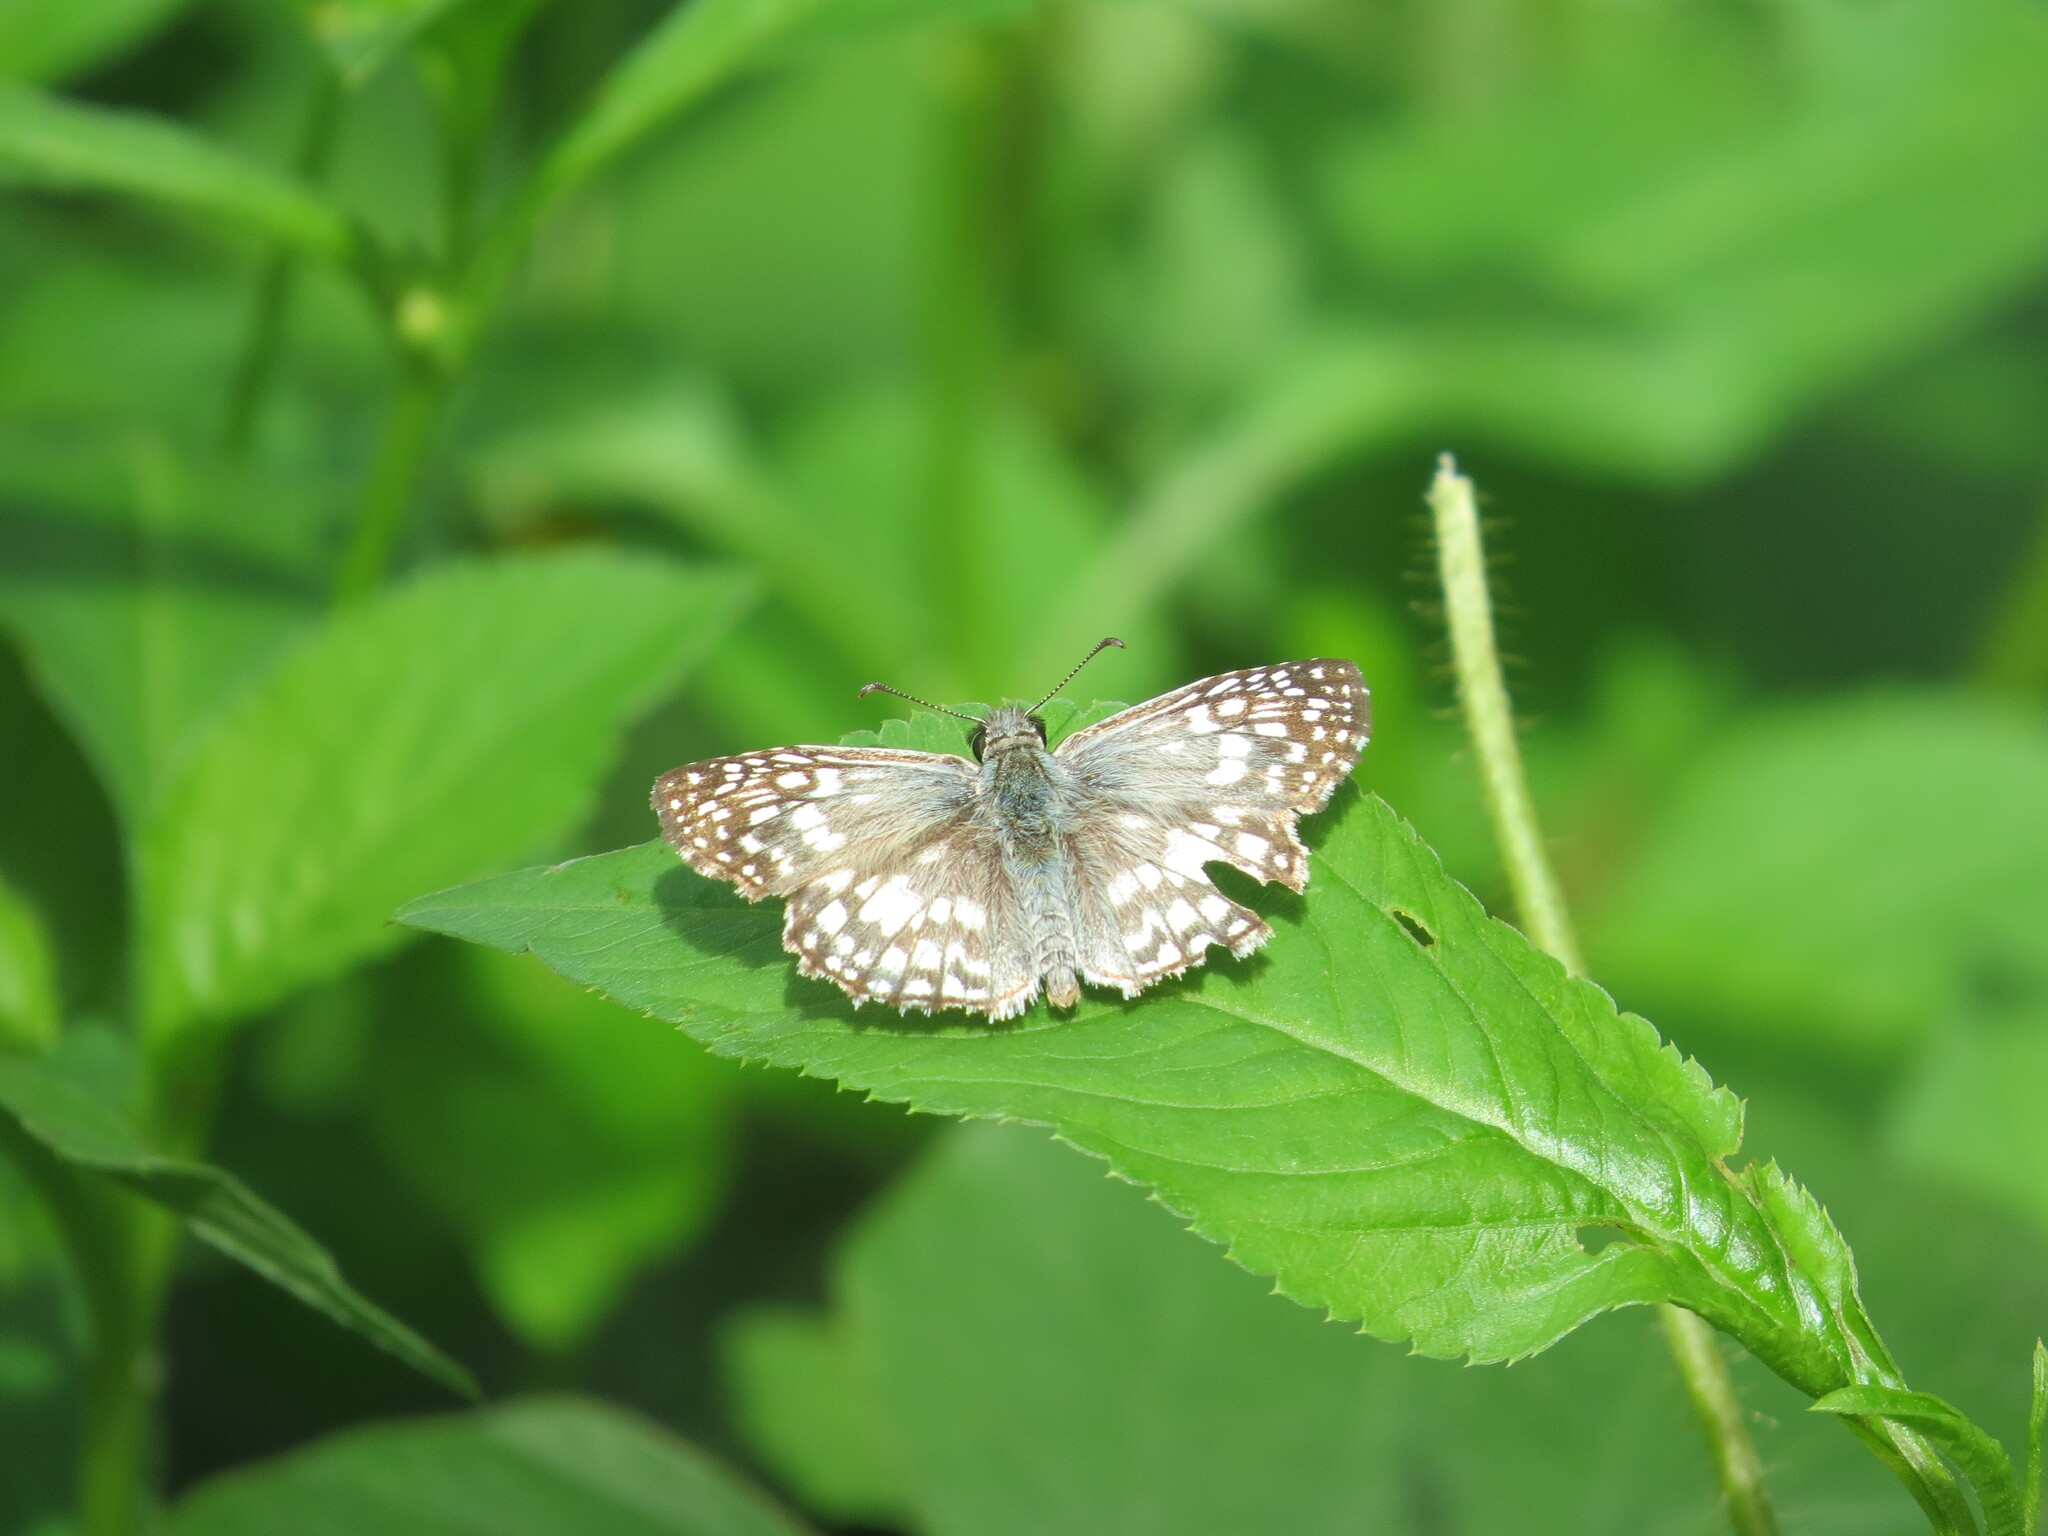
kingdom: Animalia
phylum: Arthropoda
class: Insecta
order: Lepidoptera
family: Hesperiidae
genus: Pyrgus
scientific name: Pyrgus oileus
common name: Tropical checkered-skipper
